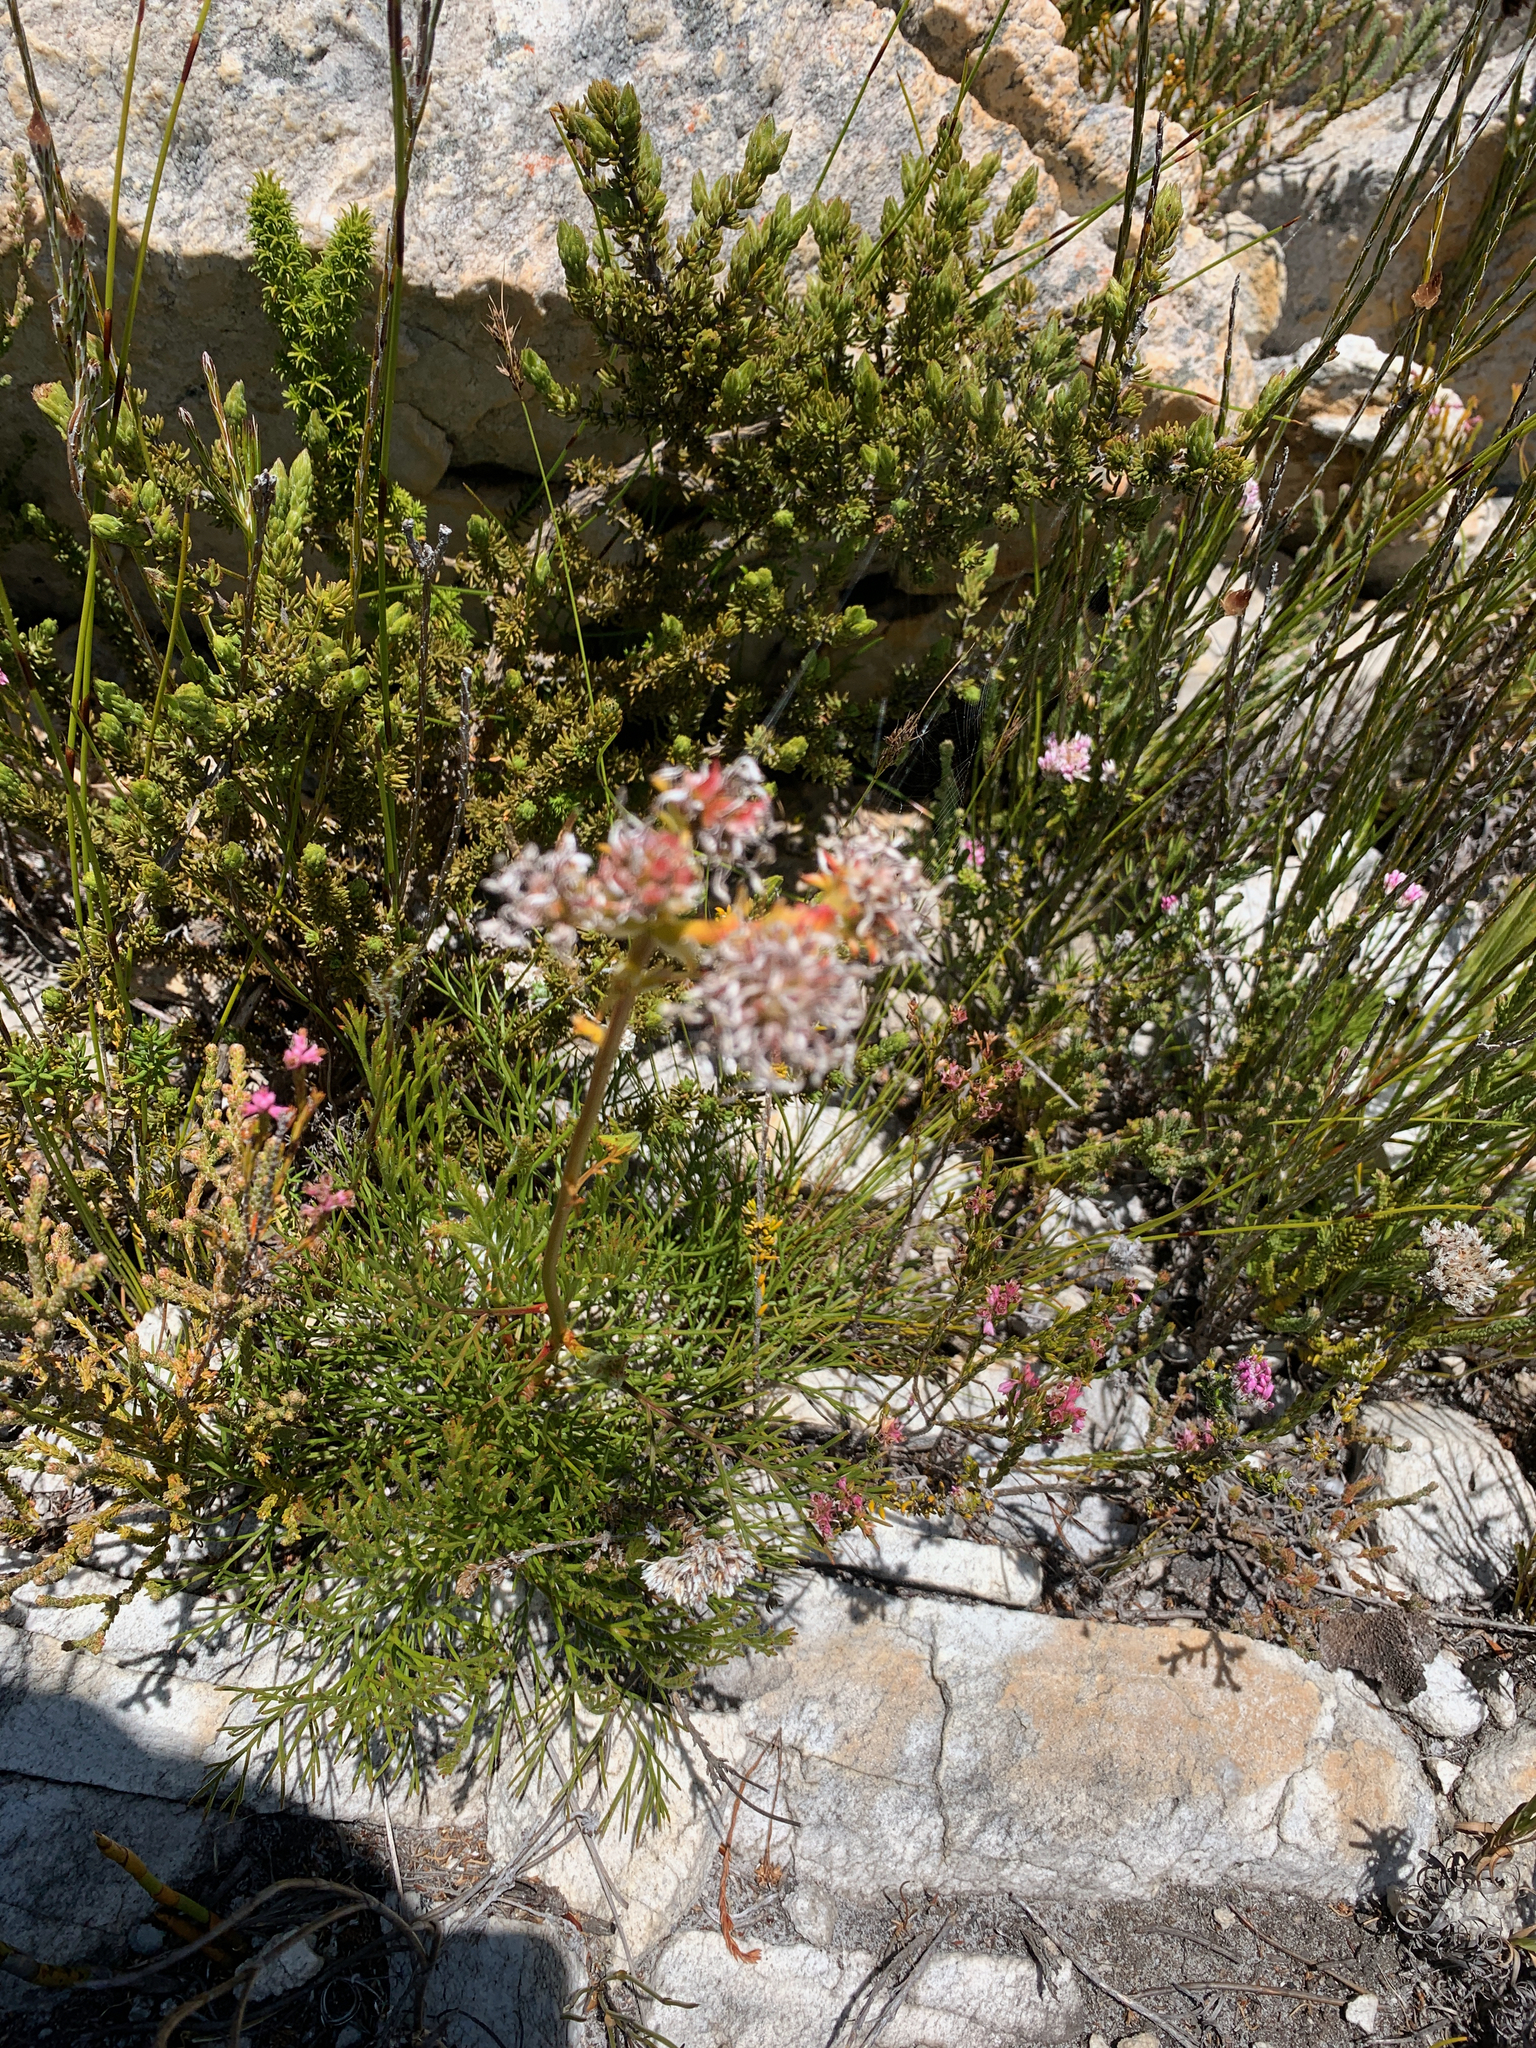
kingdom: Plantae
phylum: Tracheophyta
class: Magnoliopsida
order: Proteales
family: Proteaceae
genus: Serruria
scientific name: Serruria elongata
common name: Long-stalk spiderhead
